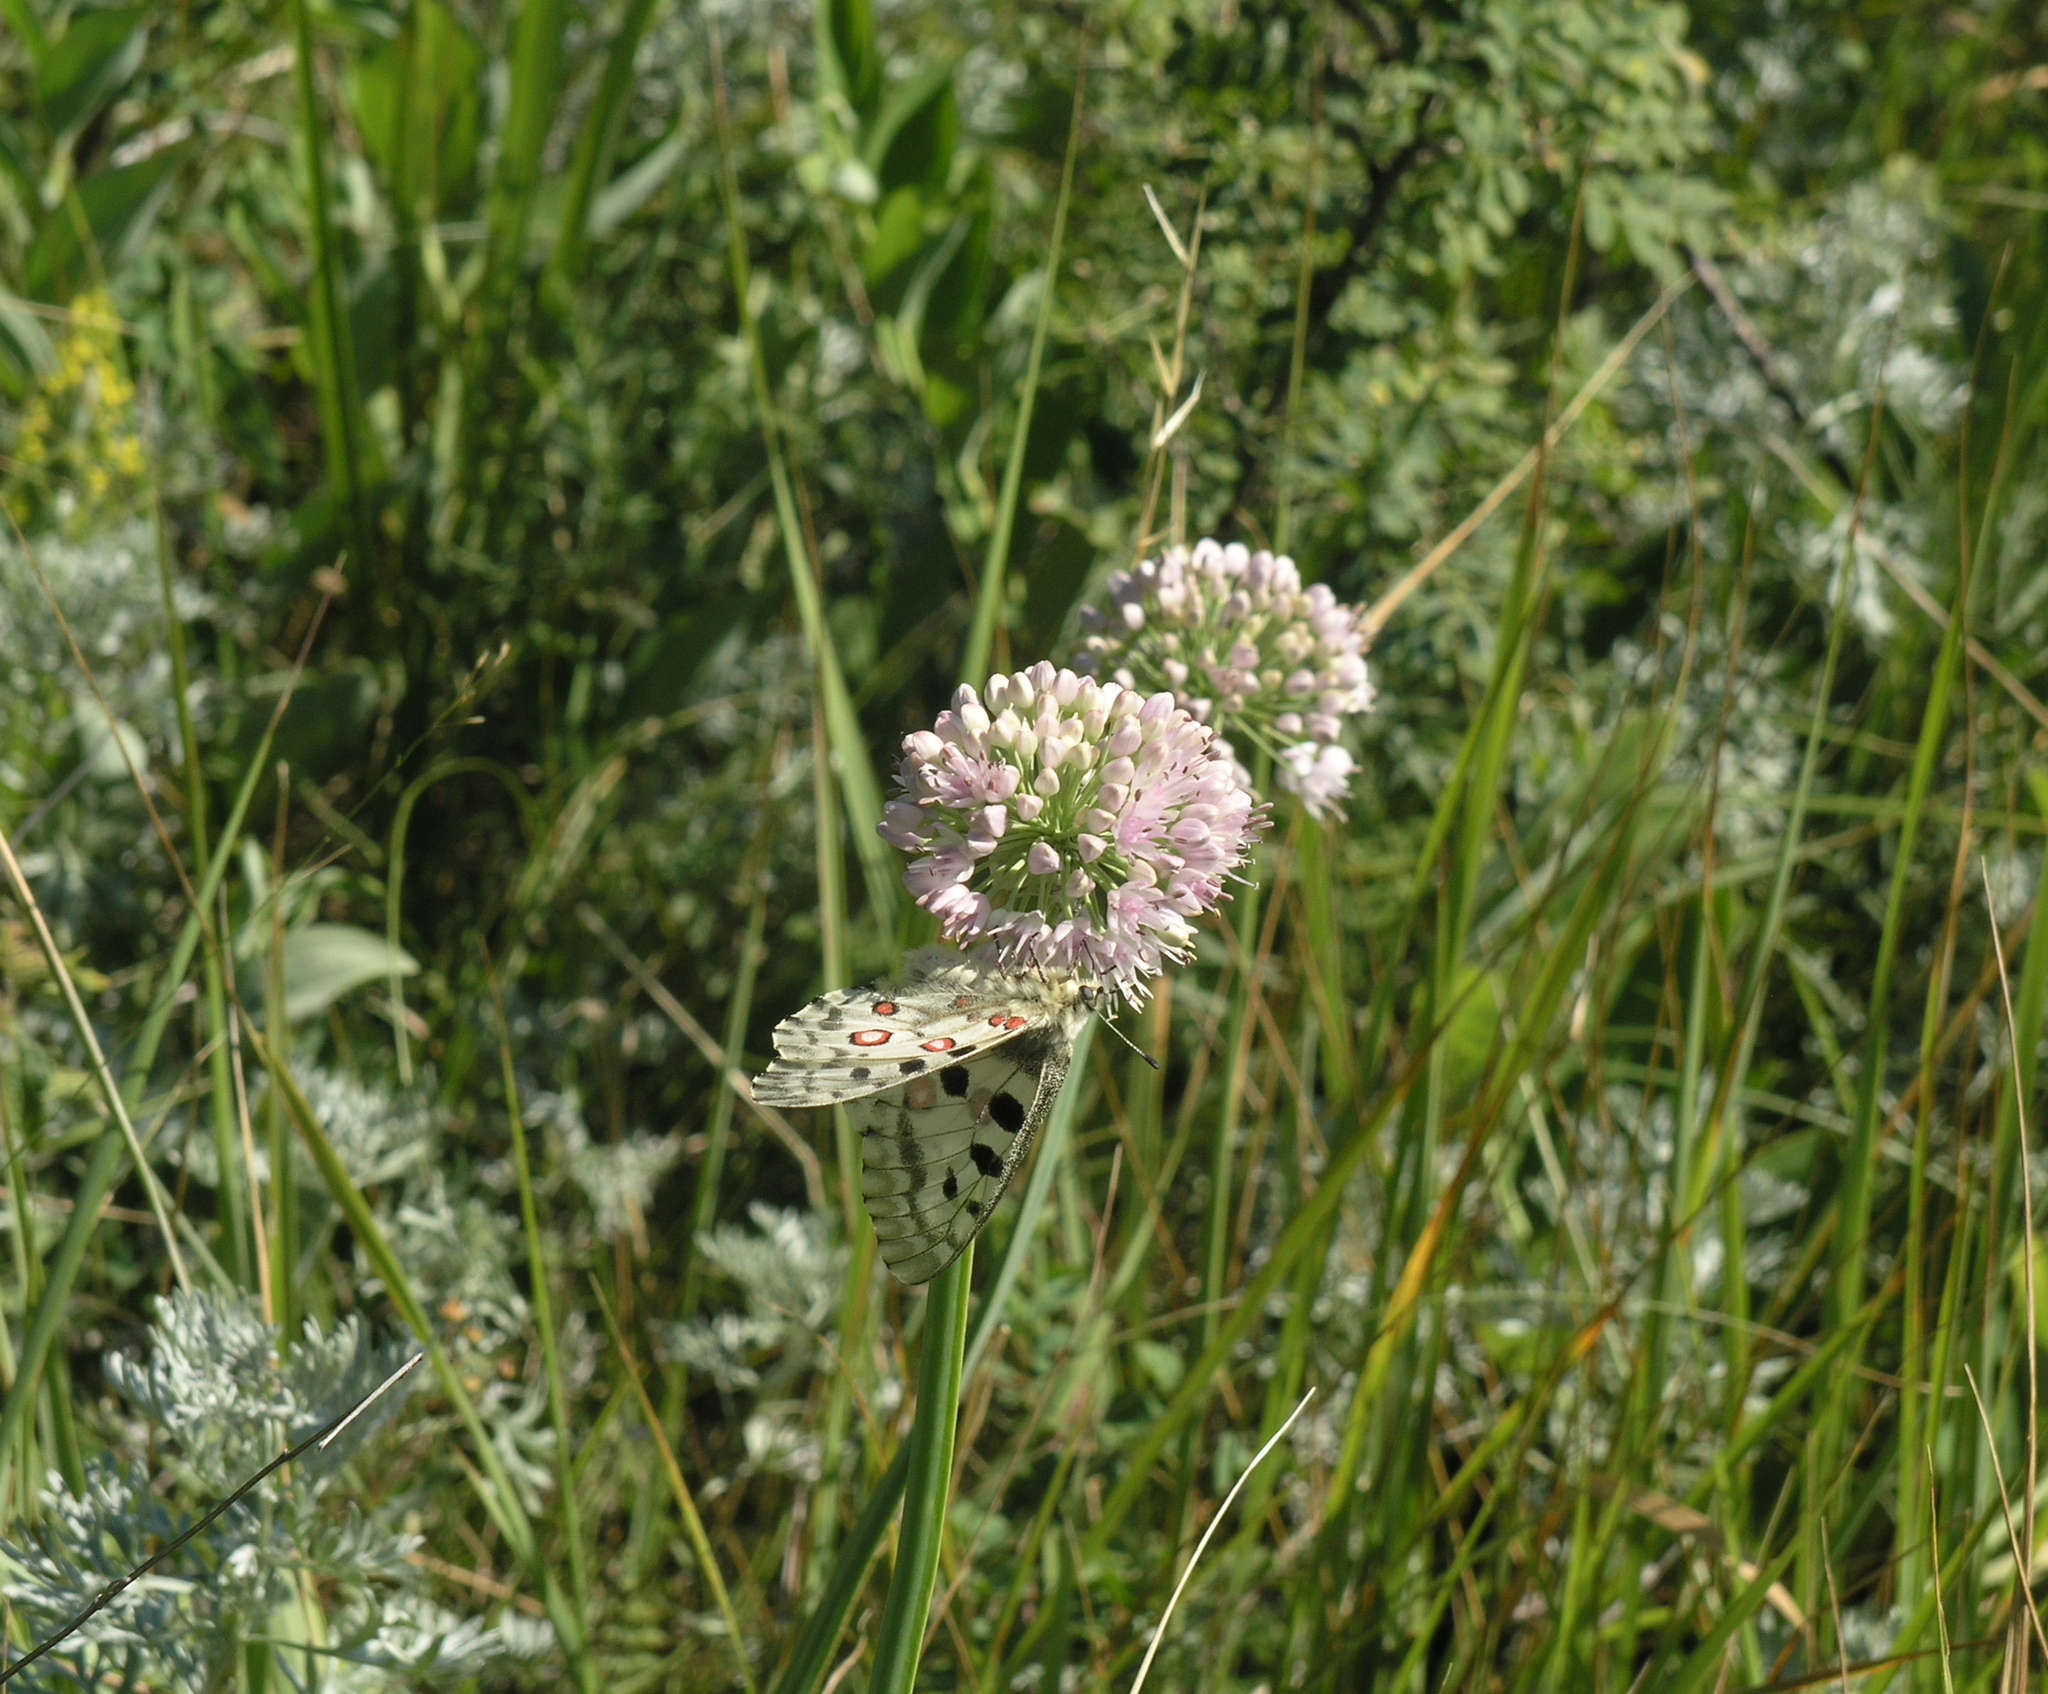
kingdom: Plantae
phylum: Tracheophyta
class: Liliopsida
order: Asparagales
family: Amaryllidaceae
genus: Allium
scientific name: Allium nutans
